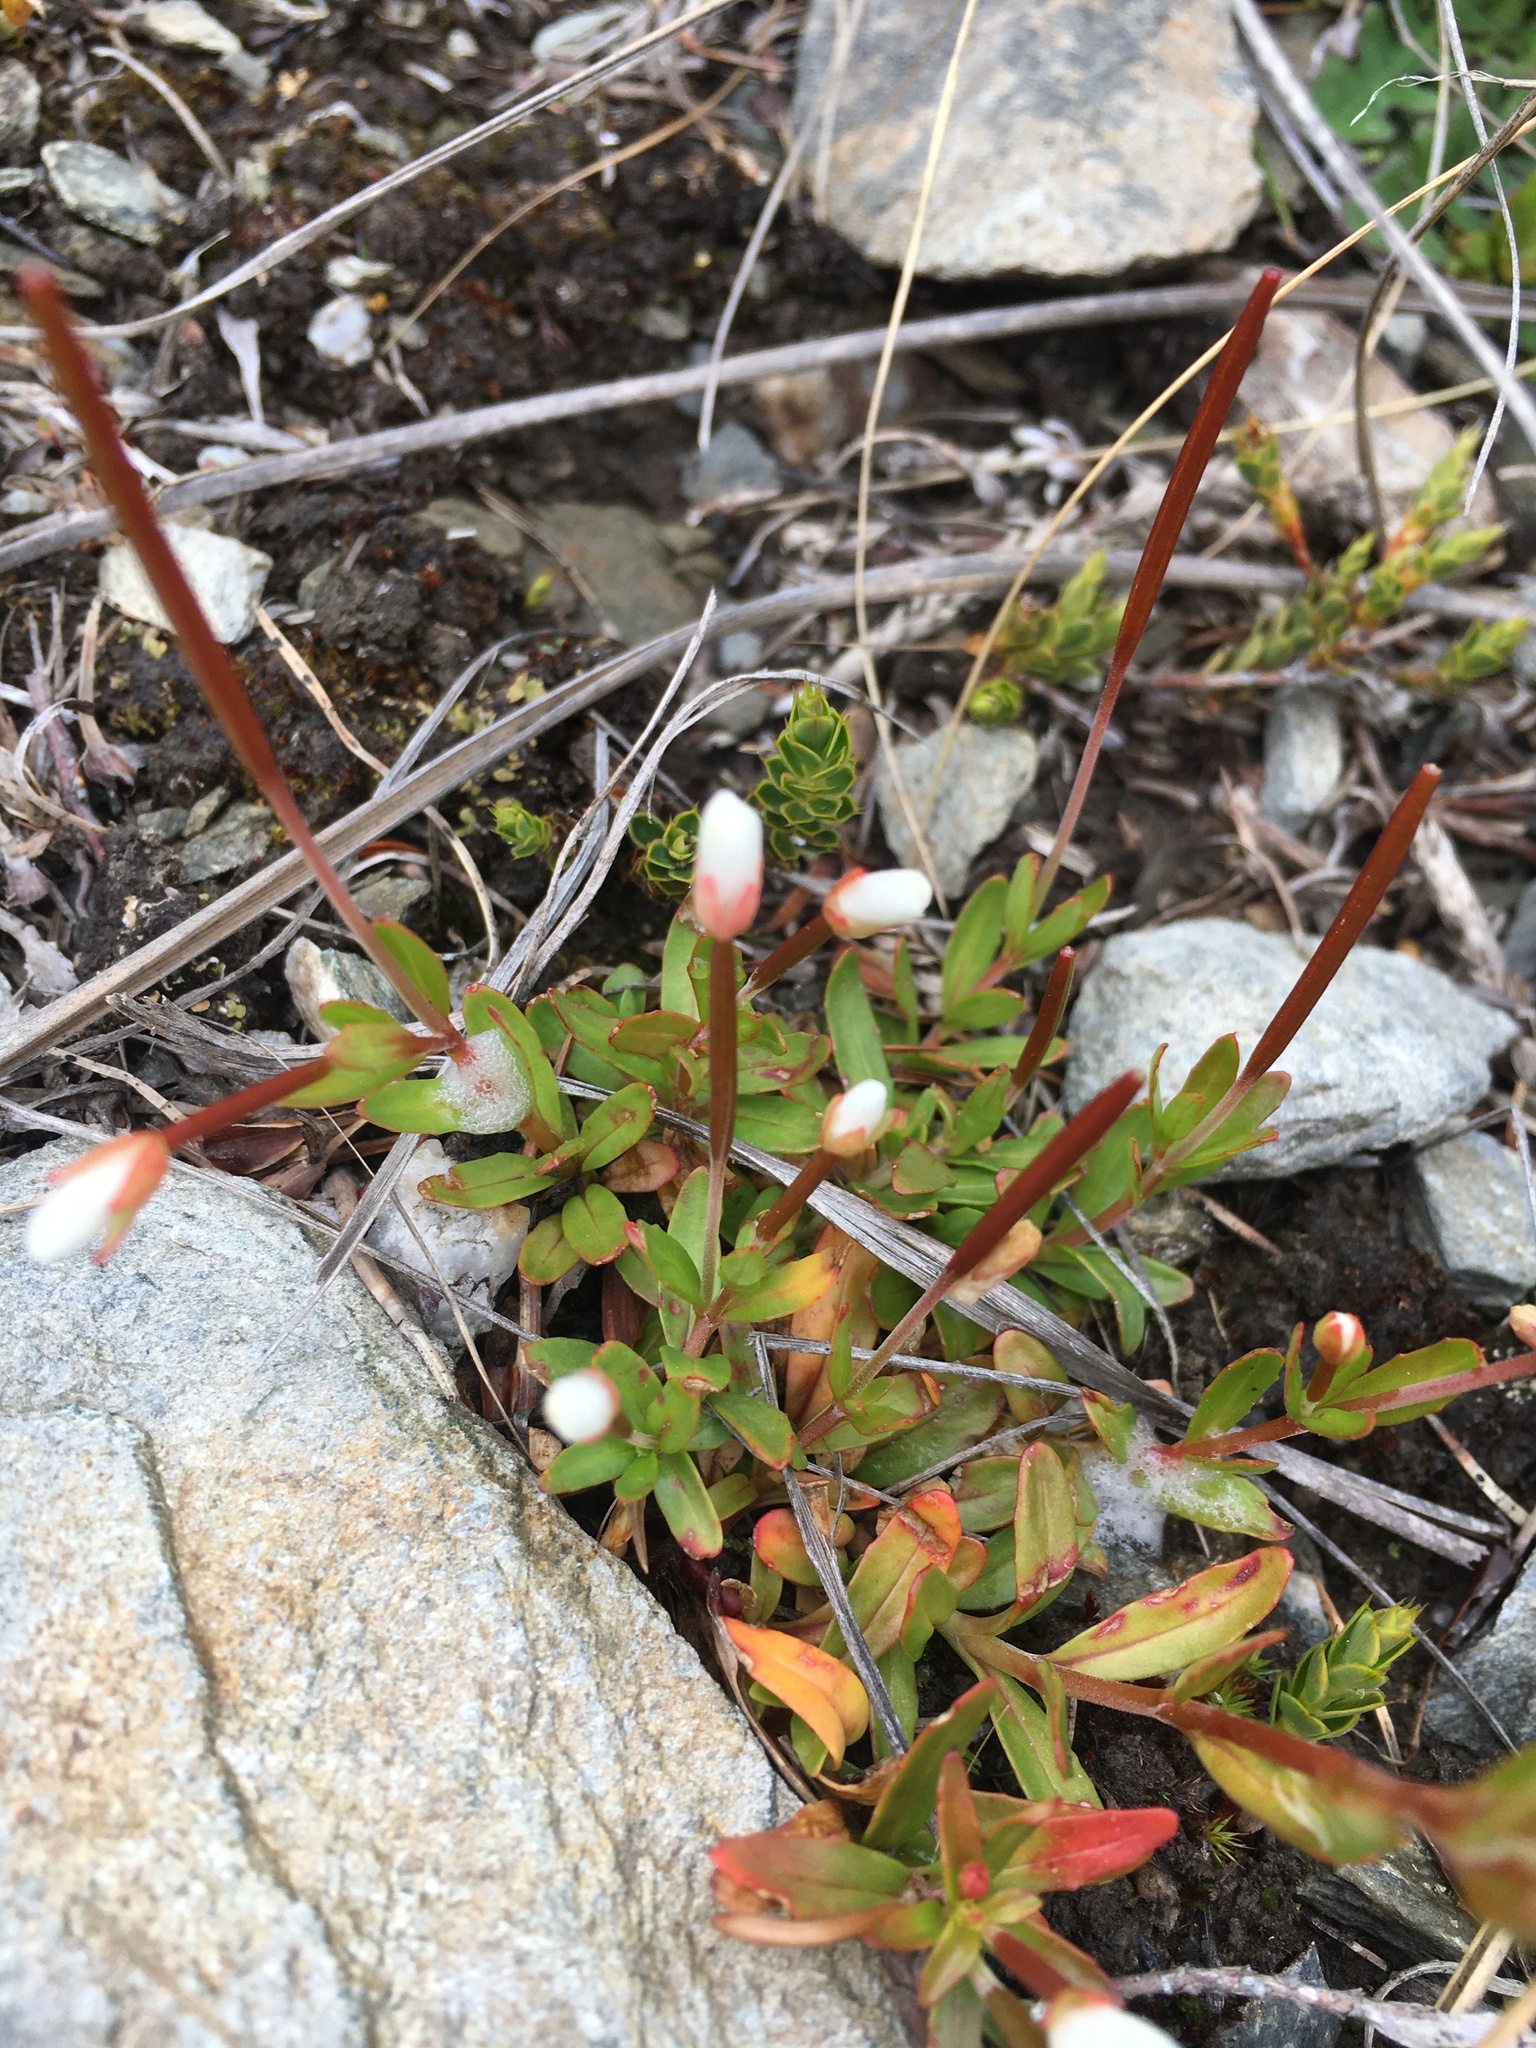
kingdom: Plantae
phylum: Tracheophyta
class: Magnoliopsida
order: Myrtales
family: Onagraceae
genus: Epilobium
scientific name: Epilobium alsinoides
